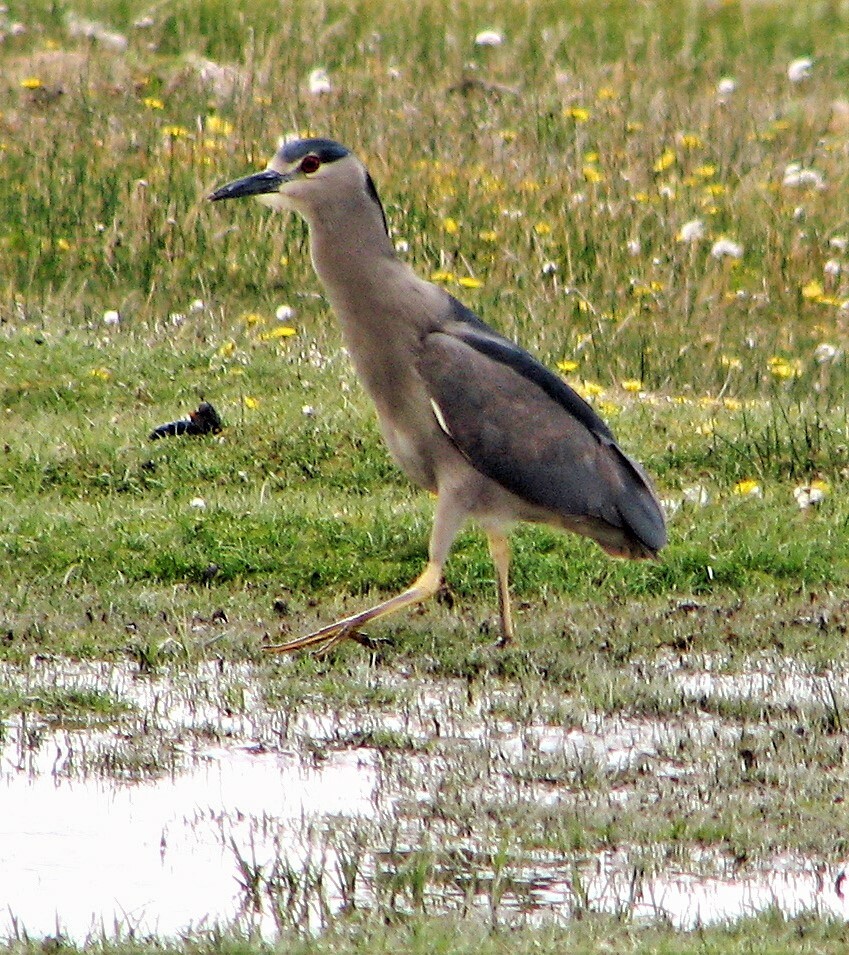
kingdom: Animalia
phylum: Chordata
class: Aves
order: Pelecaniformes
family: Ardeidae
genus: Nycticorax
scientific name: Nycticorax nycticorax
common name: Black-crowned night heron
